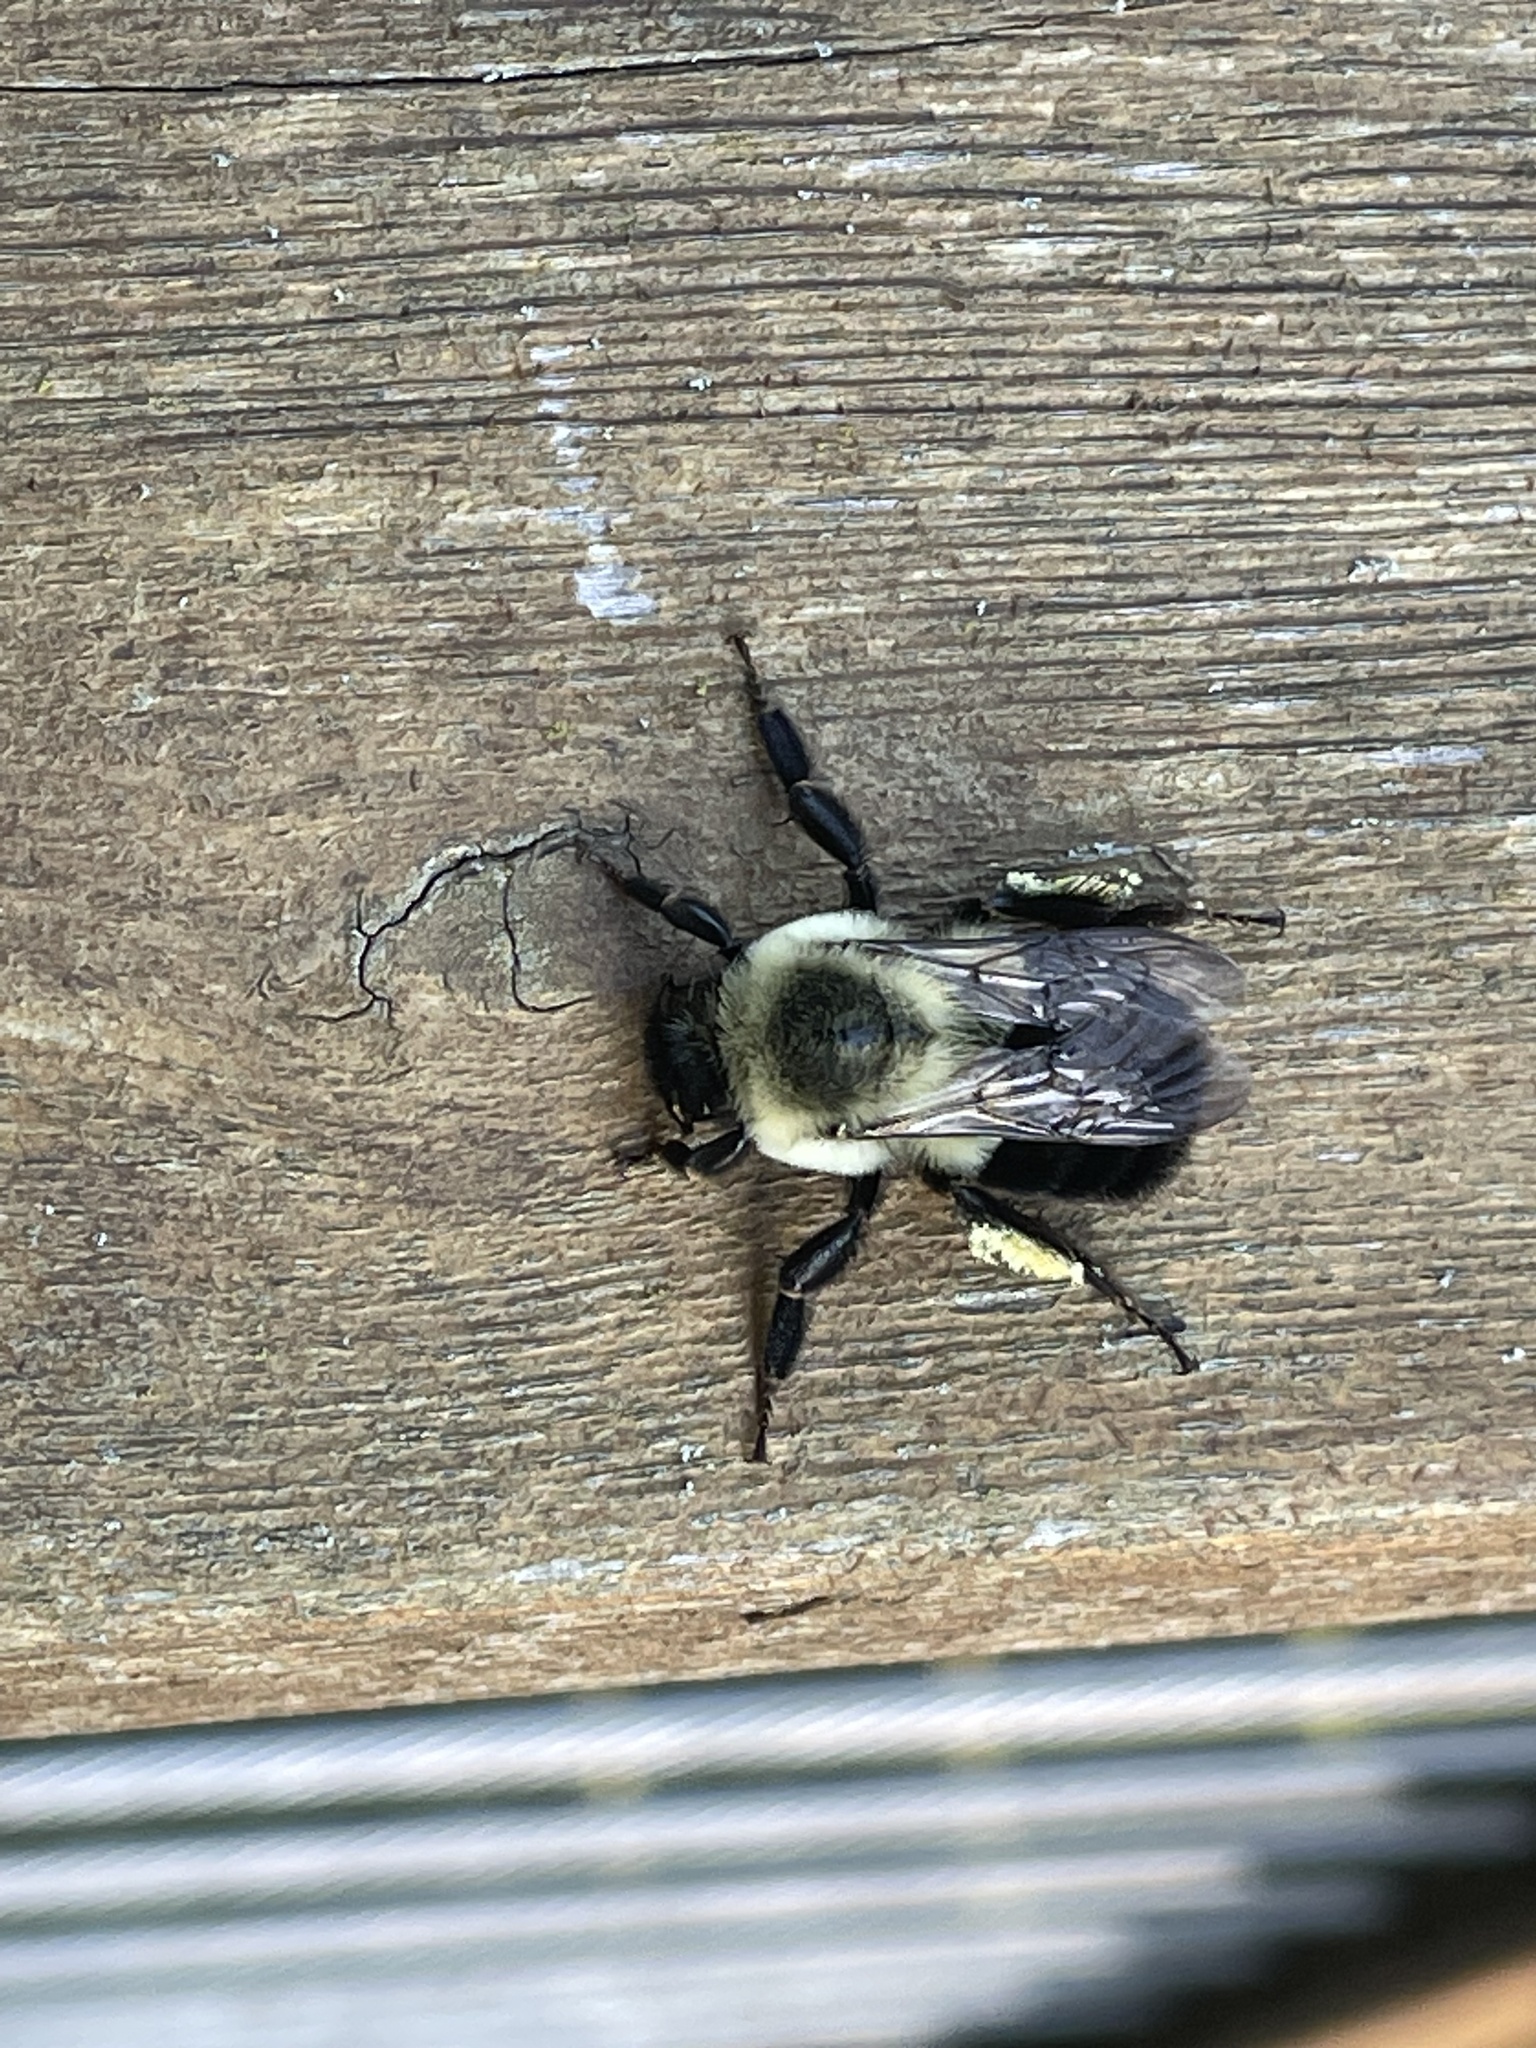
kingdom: Animalia
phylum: Arthropoda
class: Insecta
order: Hymenoptera
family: Apidae
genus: Bombus
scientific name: Bombus impatiens
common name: Common eastern bumble bee
